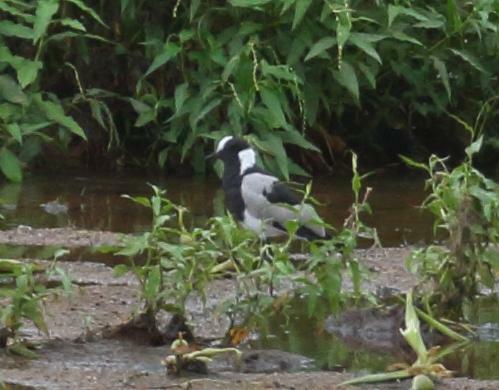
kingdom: Animalia
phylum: Chordata
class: Aves
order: Charadriiformes
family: Charadriidae
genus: Vanellus
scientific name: Vanellus armatus
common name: Blacksmith lapwing
